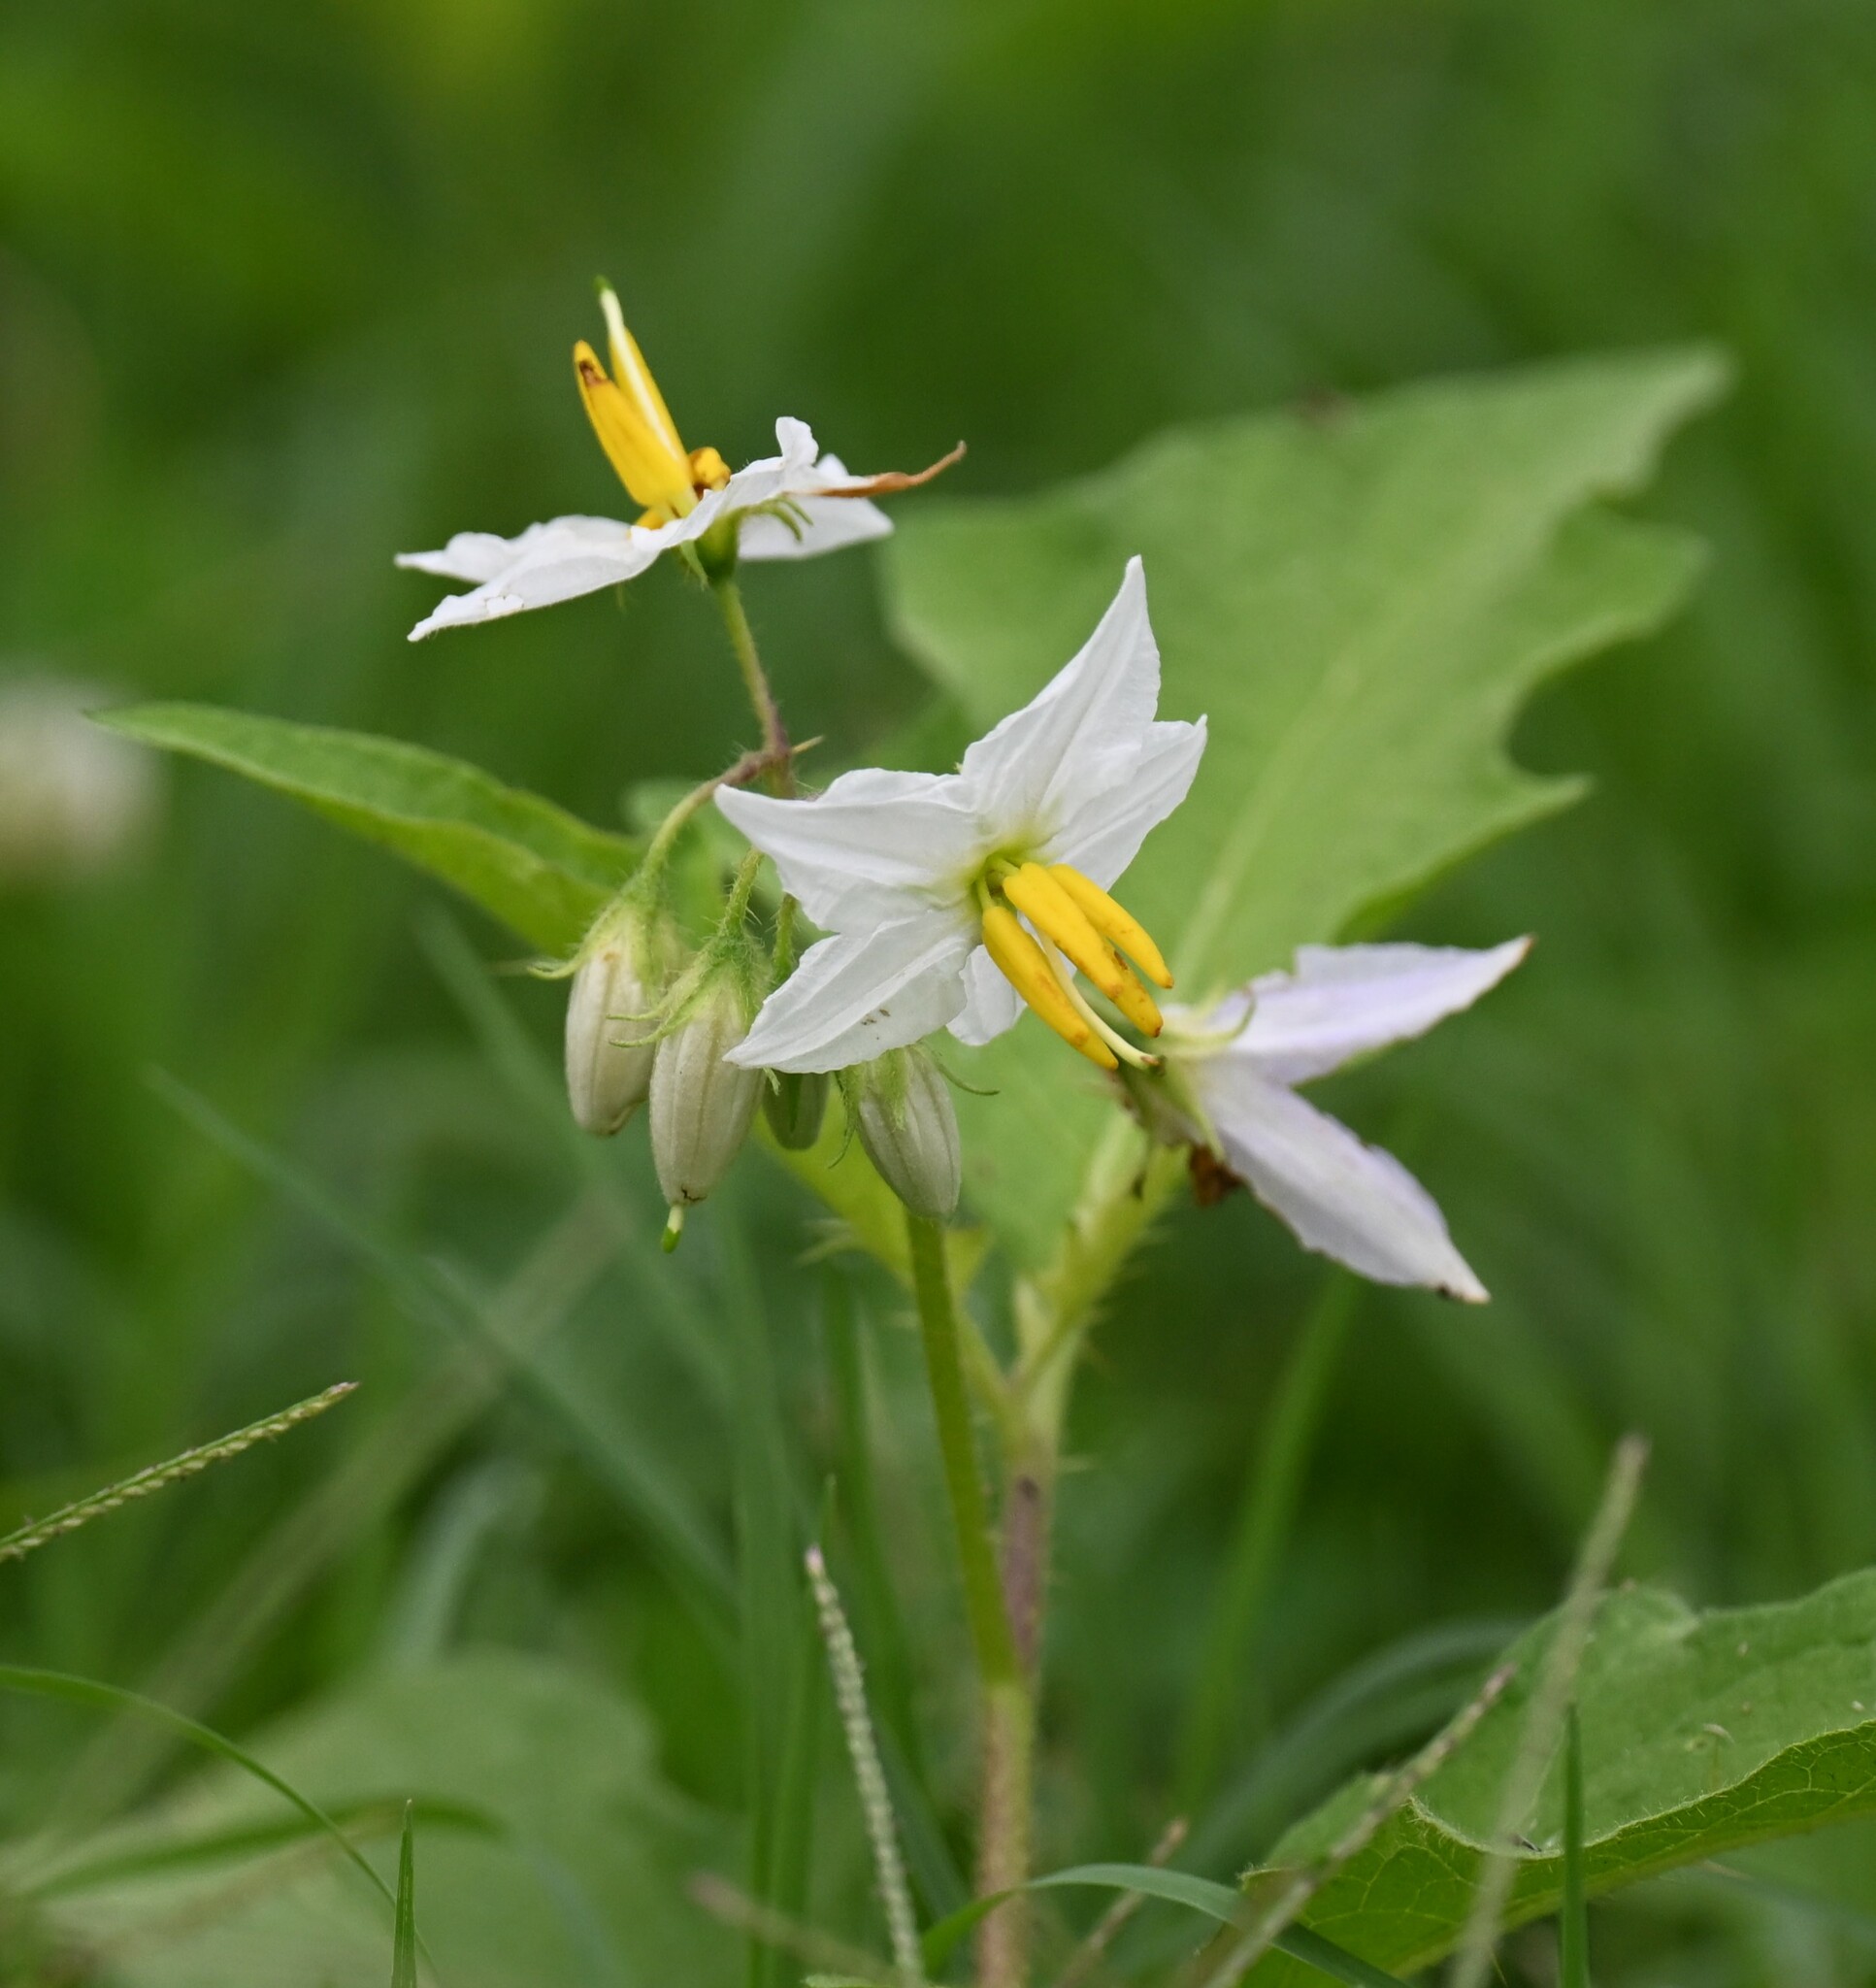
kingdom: Plantae
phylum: Tracheophyta
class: Magnoliopsida
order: Solanales
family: Solanaceae
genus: Solanum
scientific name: Solanum carolinense
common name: Horse-nettle
